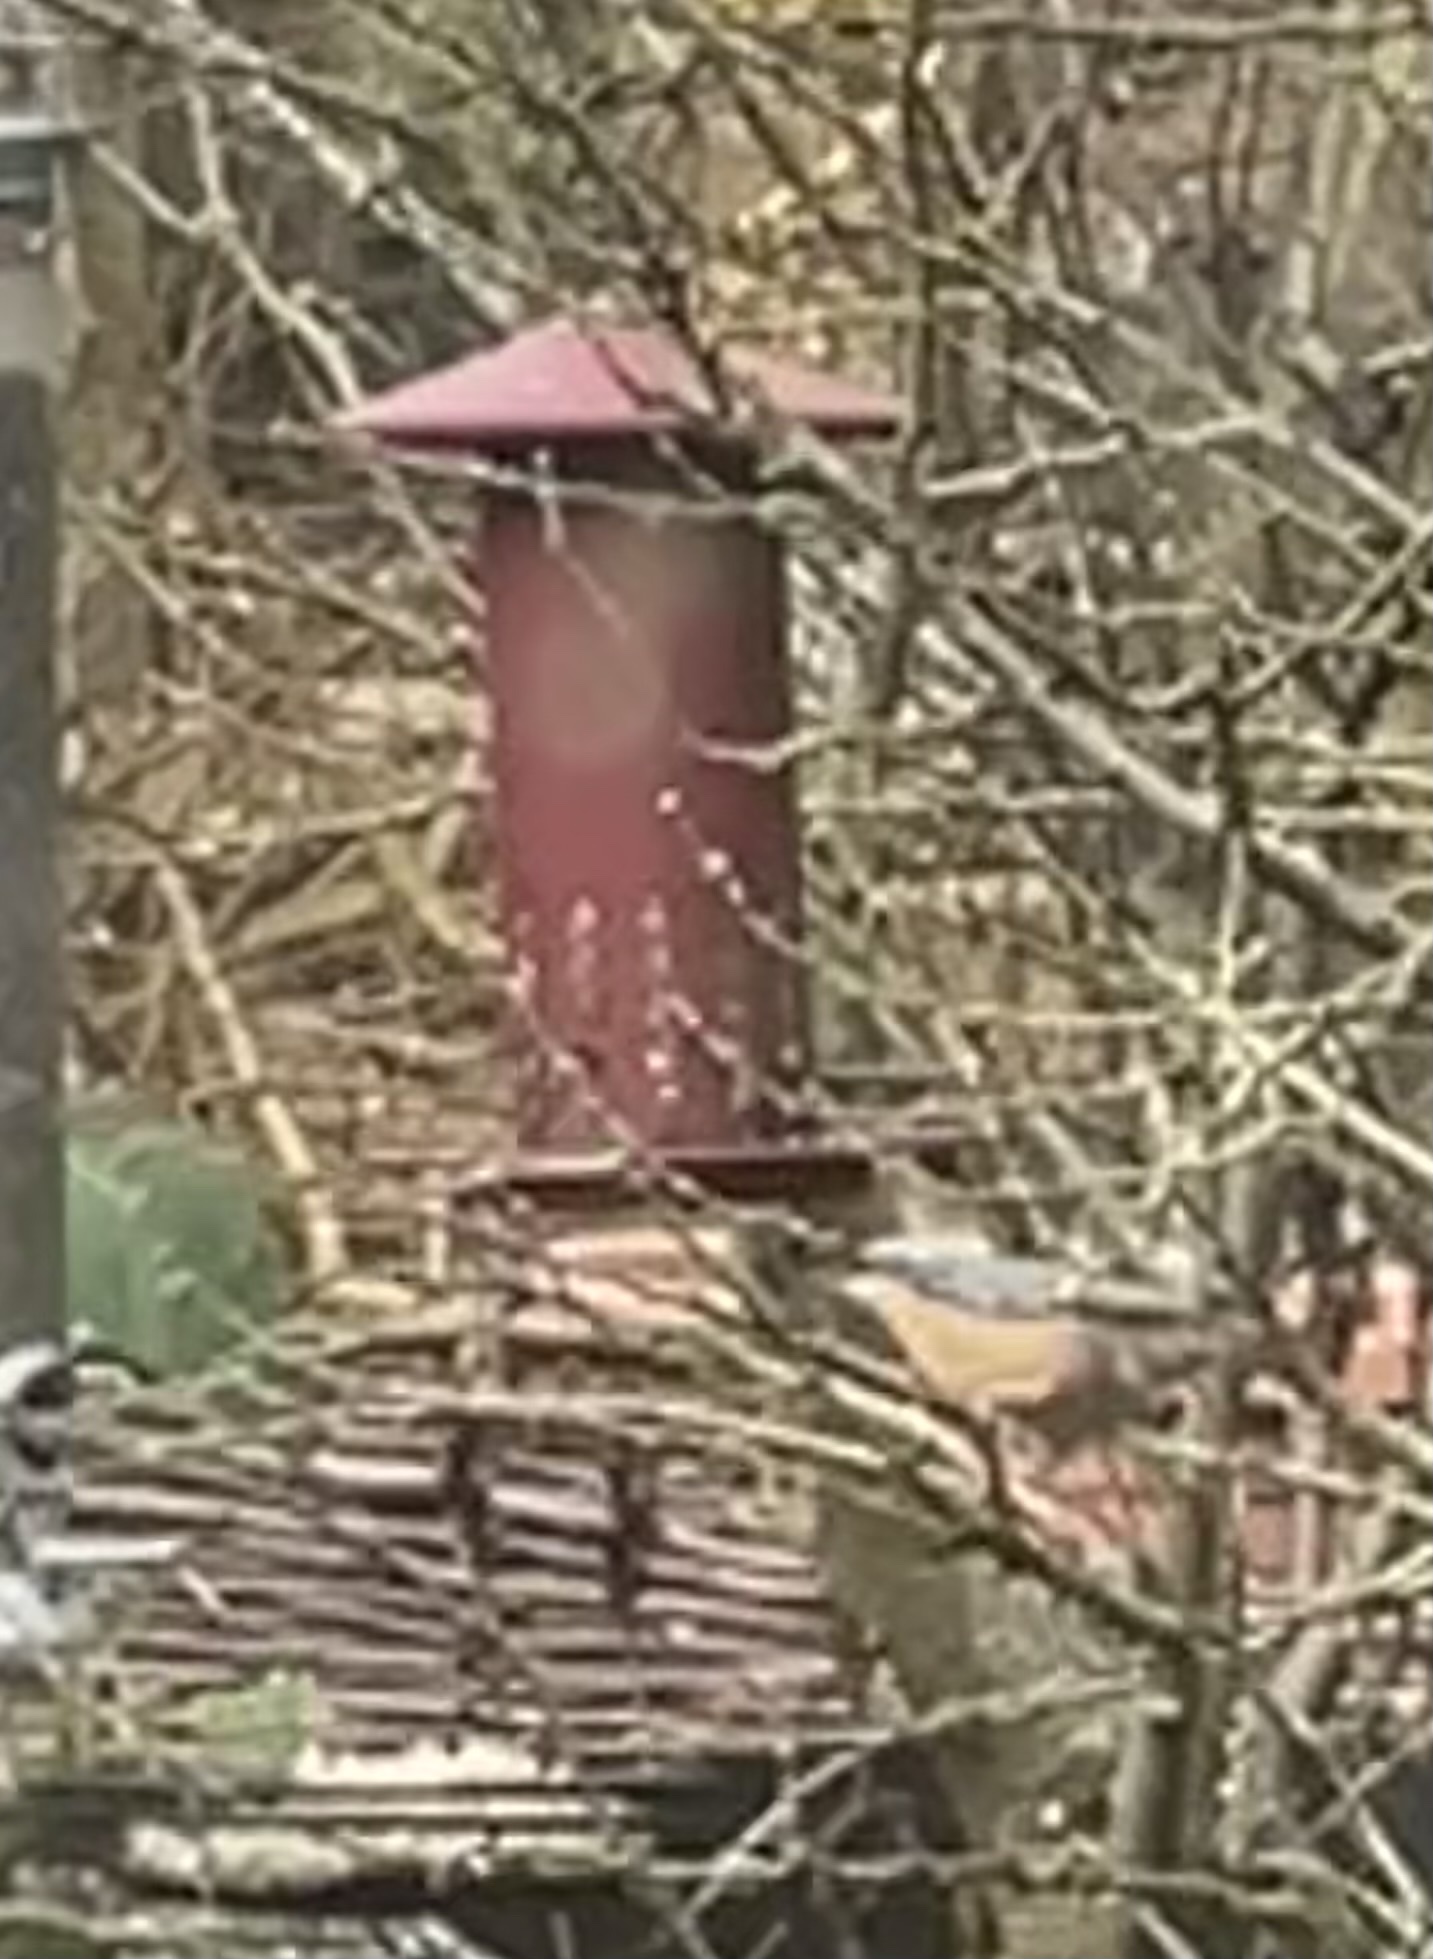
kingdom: Animalia
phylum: Chordata
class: Aves
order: Passeriformes
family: Sittidae
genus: Sitta
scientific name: Sitta europaea
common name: Eurasian nuthatch
